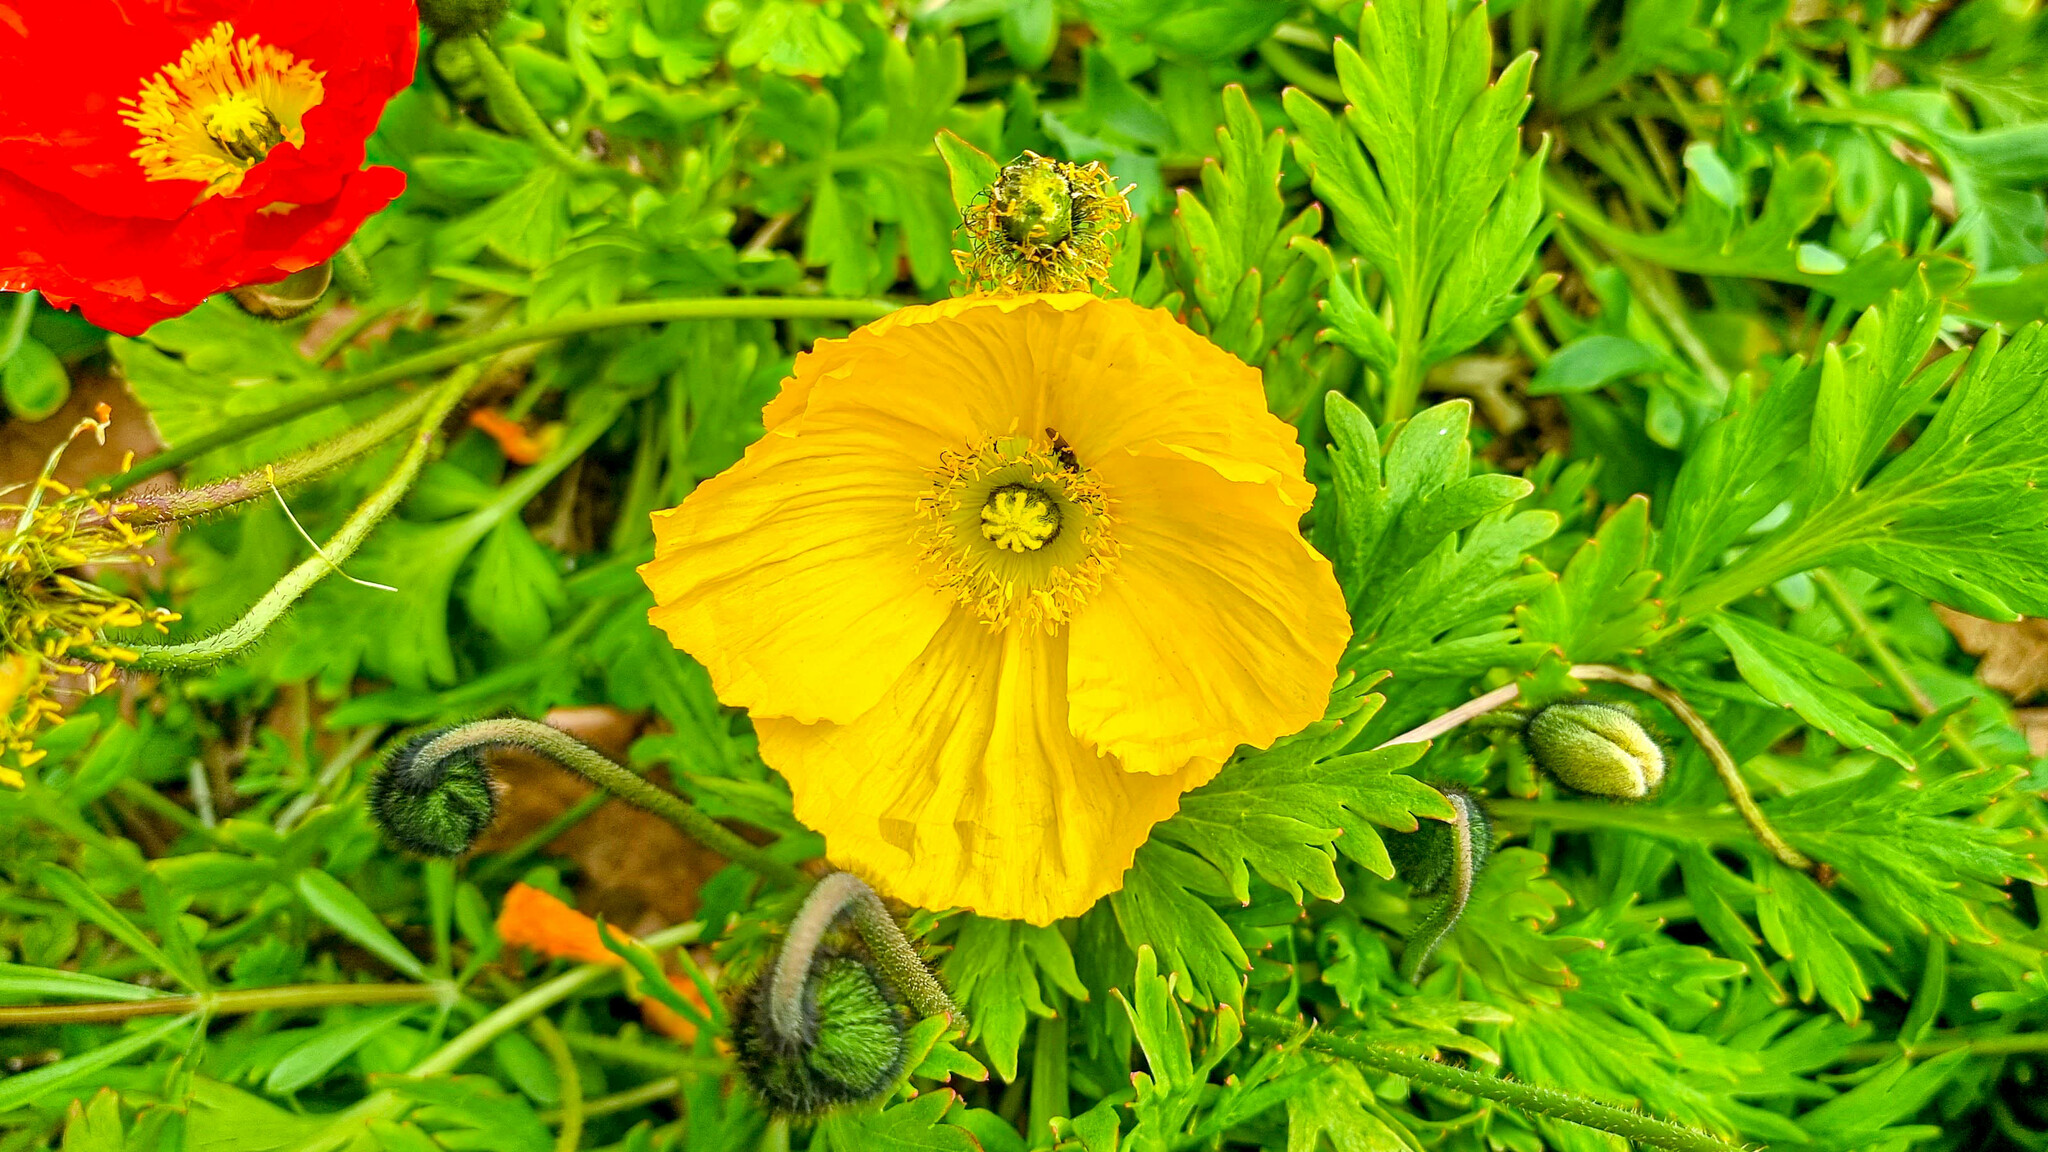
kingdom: Plantae
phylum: Tracheophyta
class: Magnoliopsida
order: Ranunculales
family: Papaveraceae
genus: Oreomecon
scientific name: Oreomecon
